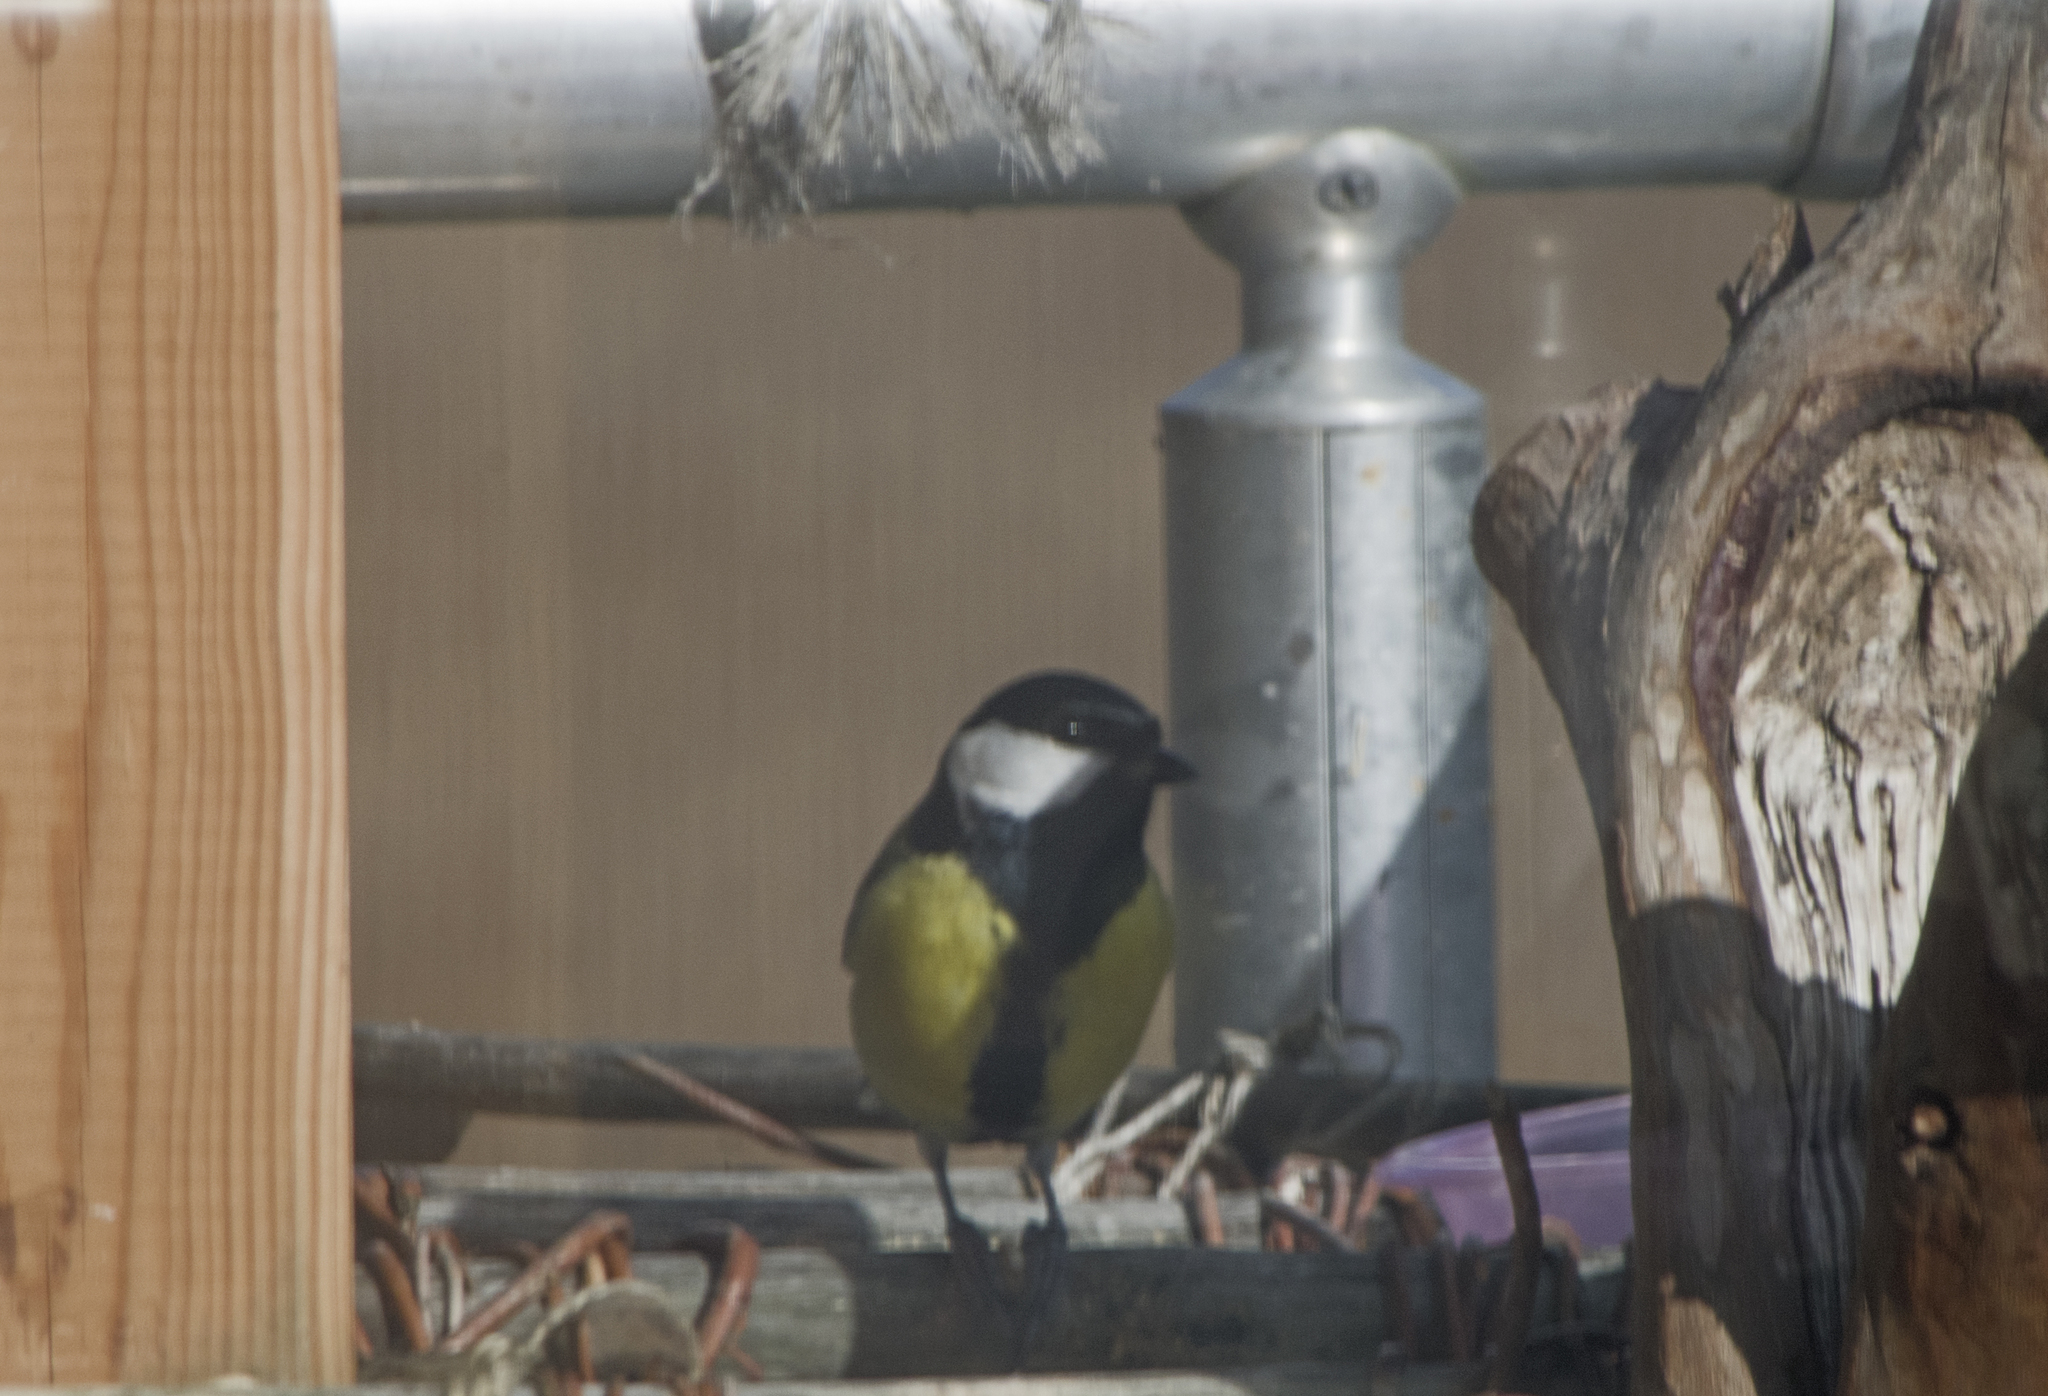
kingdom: Animalia
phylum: Chordata
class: Aves
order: Passeriformes
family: Paridae
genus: Parus
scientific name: Parus major
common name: Great tit
